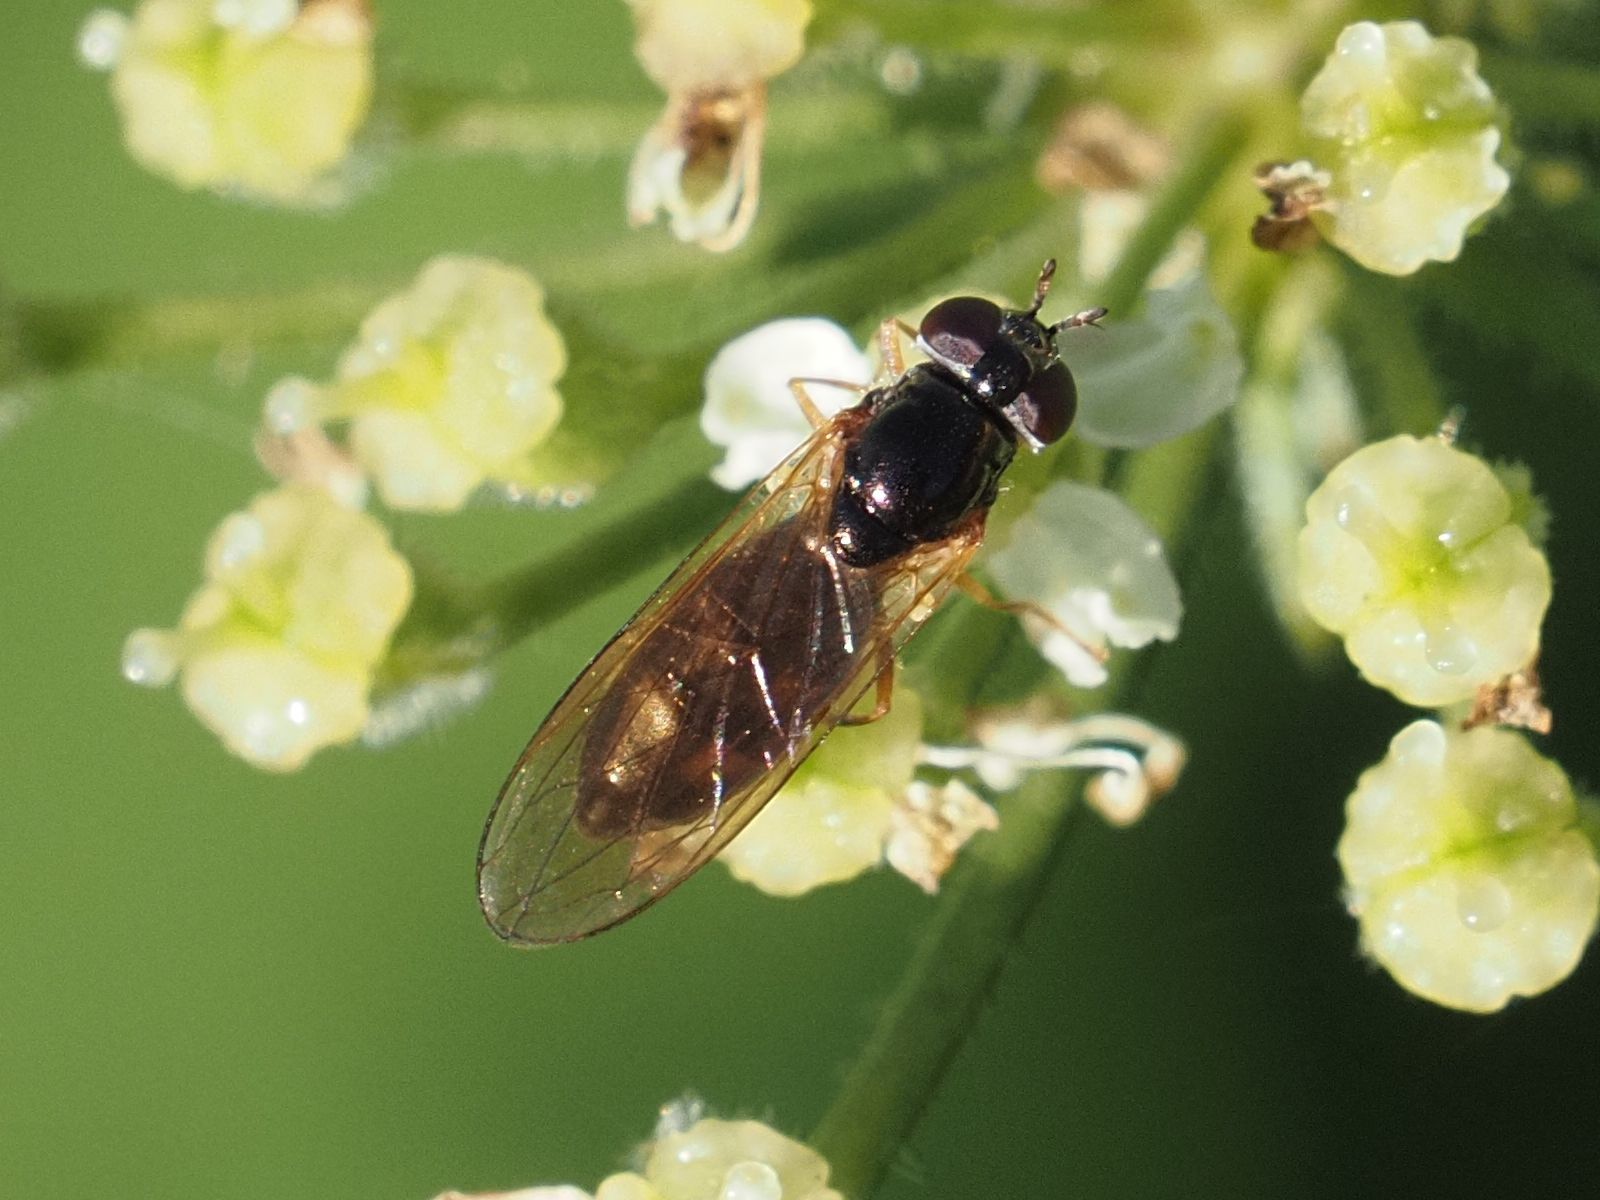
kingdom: Animalia
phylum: Arthropoda
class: Insecta
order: Diptera
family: Syrphidae
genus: Melanostoma
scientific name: Melanostoma scalare
